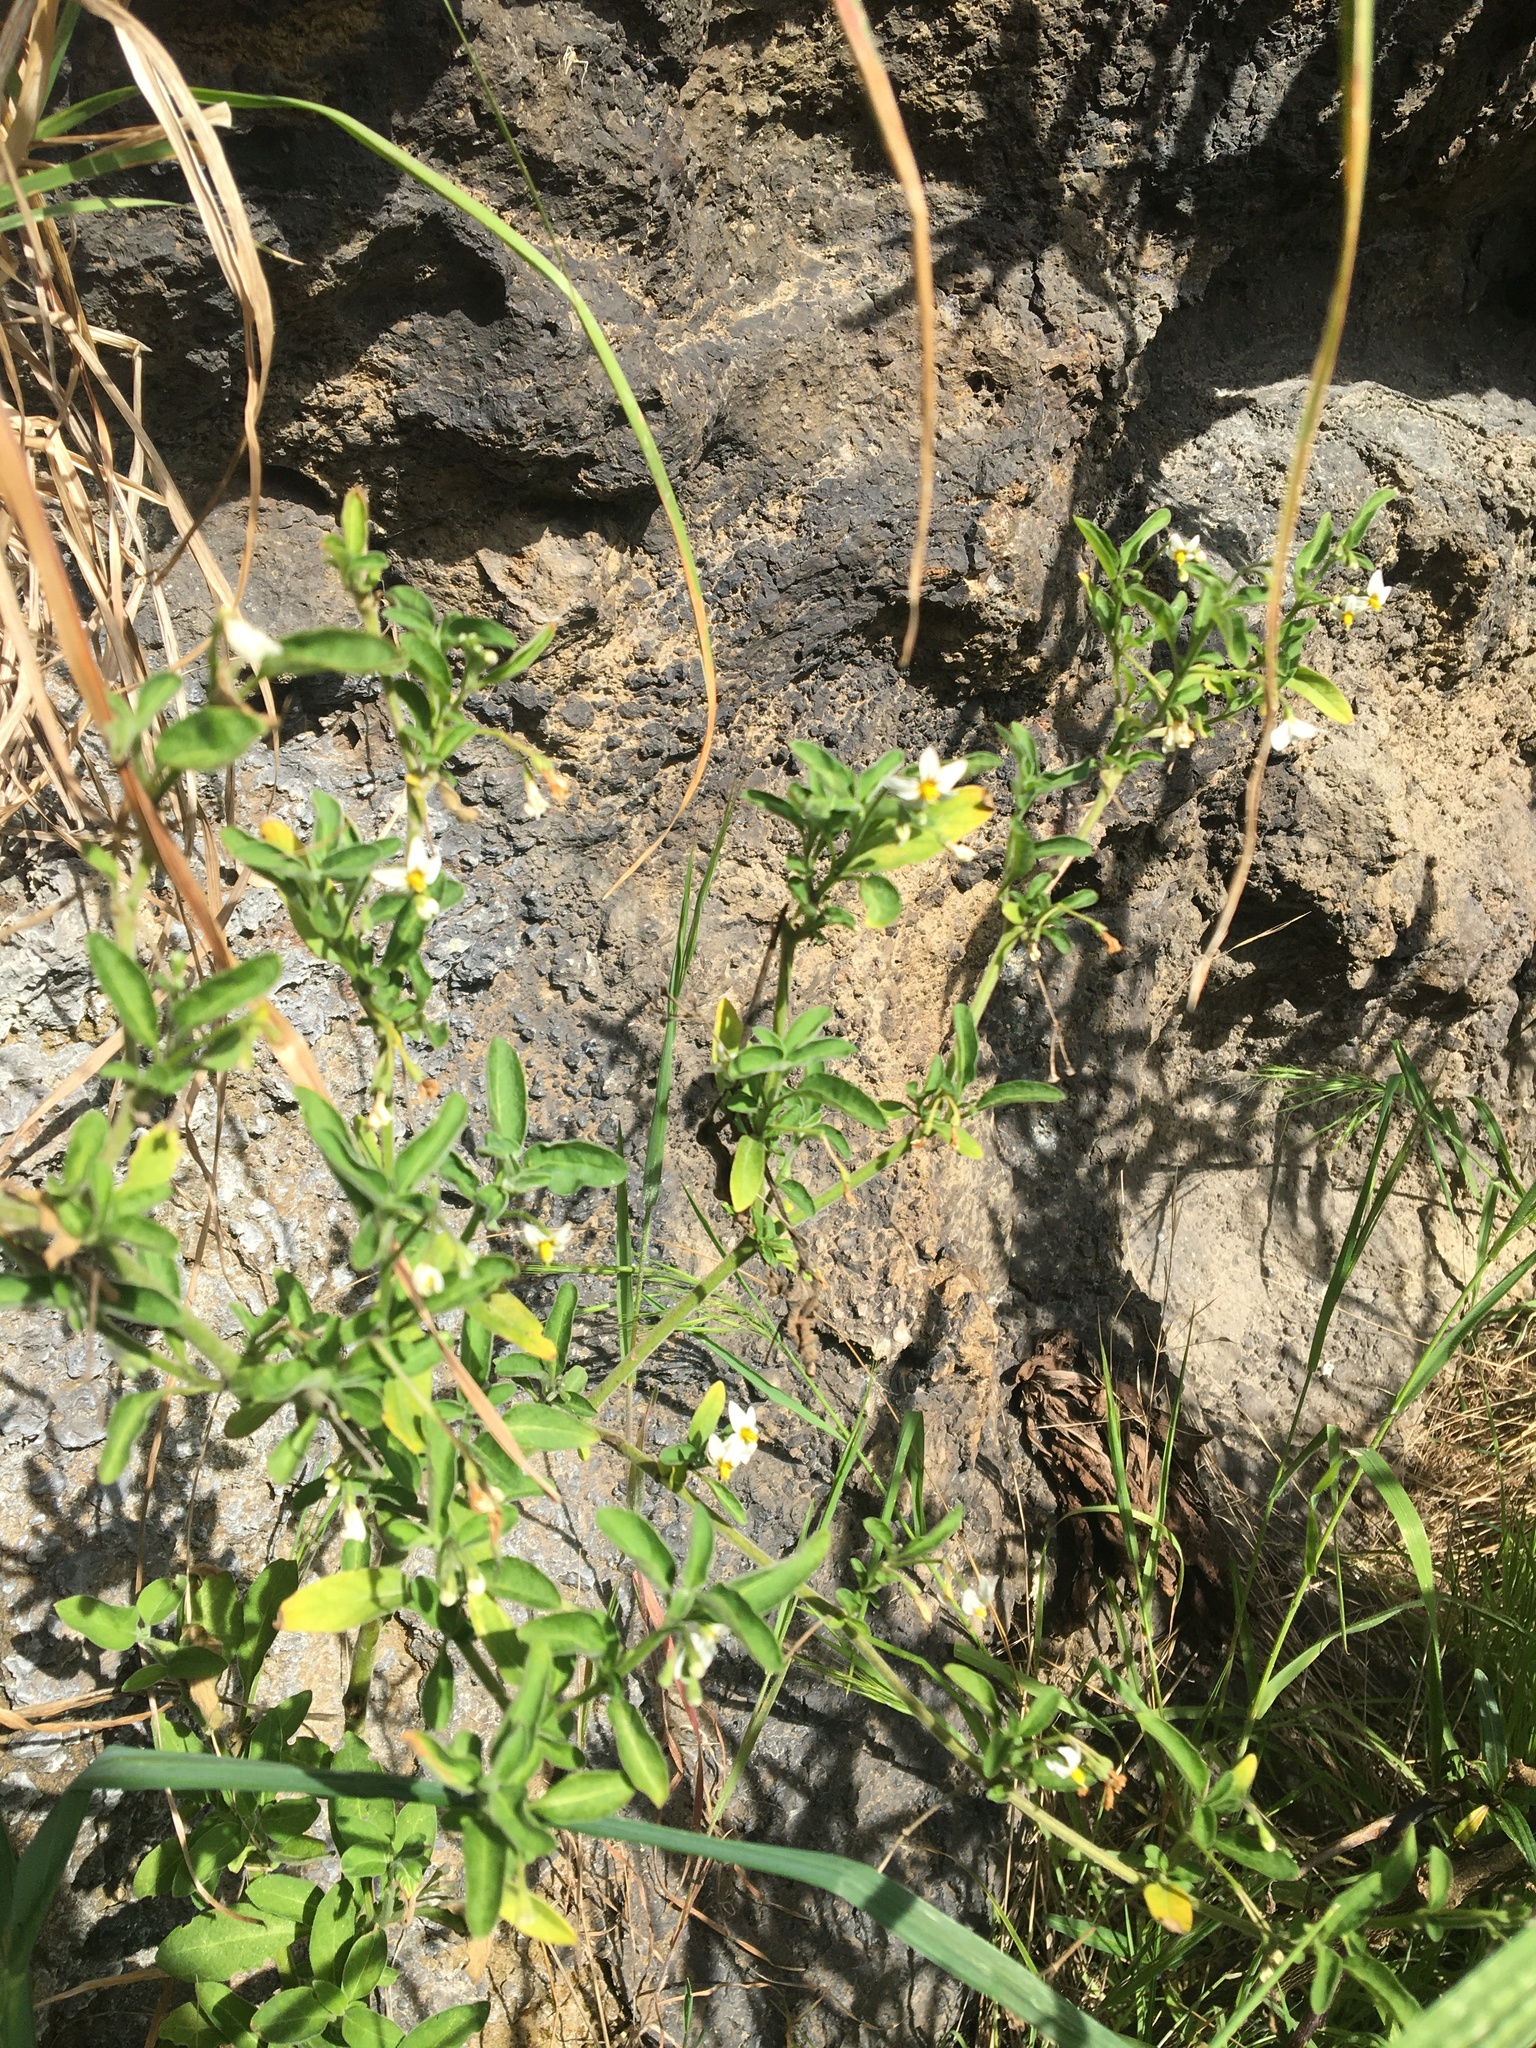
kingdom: Plantae
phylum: Tracheophyta
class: Magnoliopsida
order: Solanales
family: Solanaceae
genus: Solanum
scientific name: Solanum chenopodioides
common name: Tall nightshade
